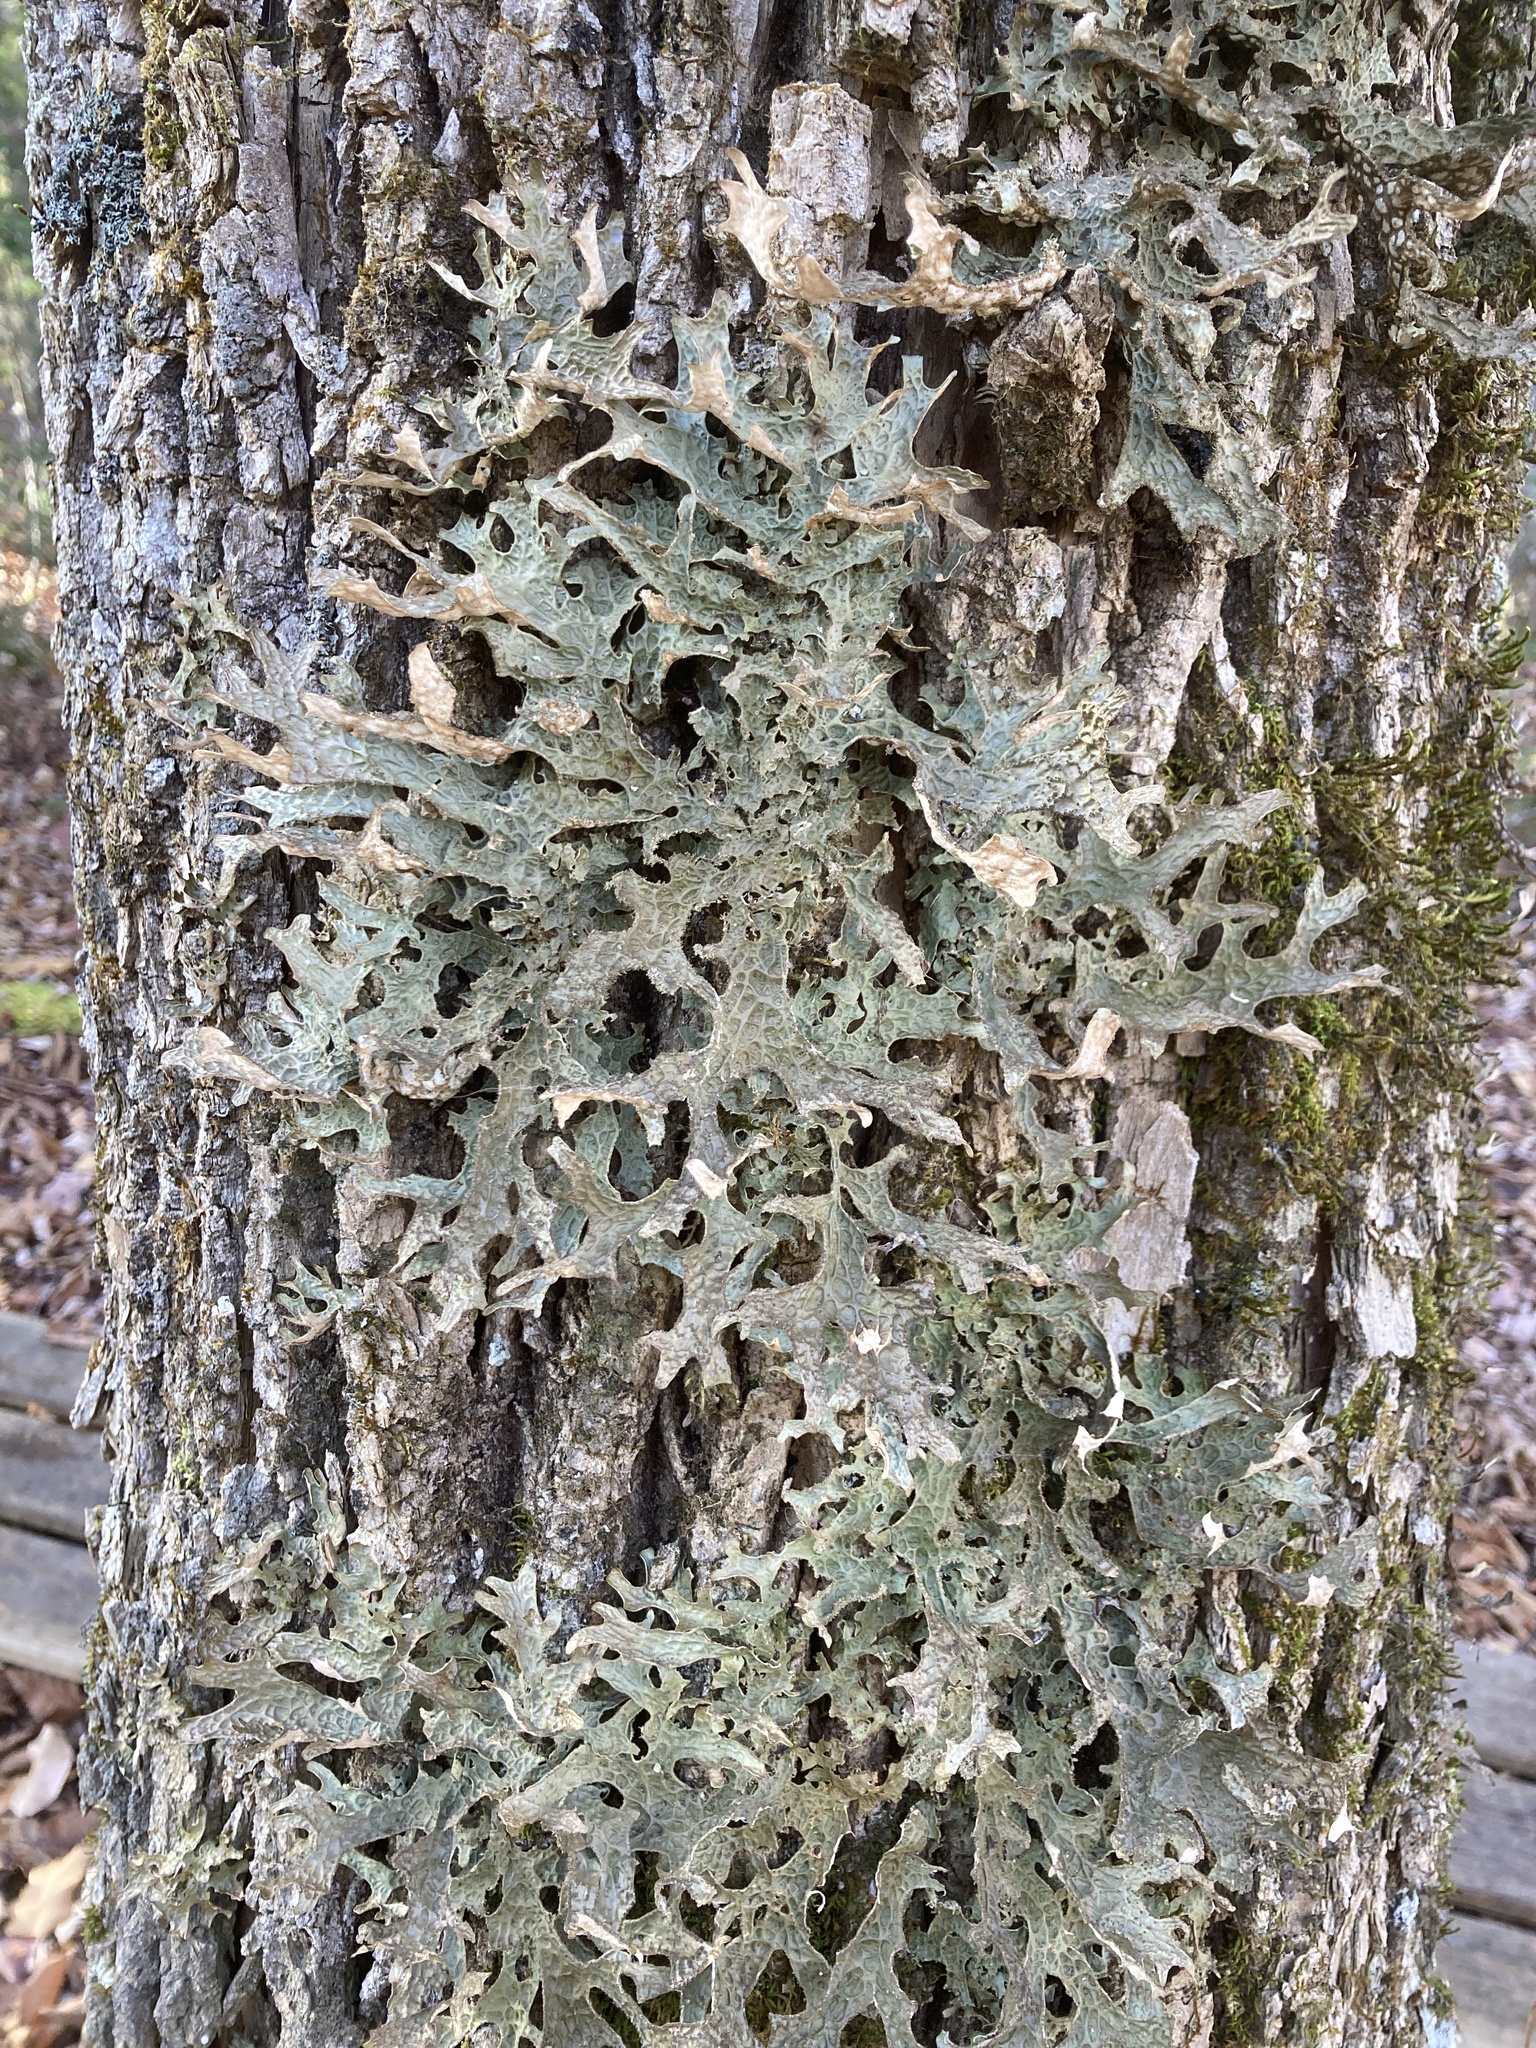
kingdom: Fungi
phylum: Ascomycota
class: Lecanoromycetes
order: Peltigerales
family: Lobariaceae
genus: Lobaria
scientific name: Lobaria pulmonaria
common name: Lungwort
